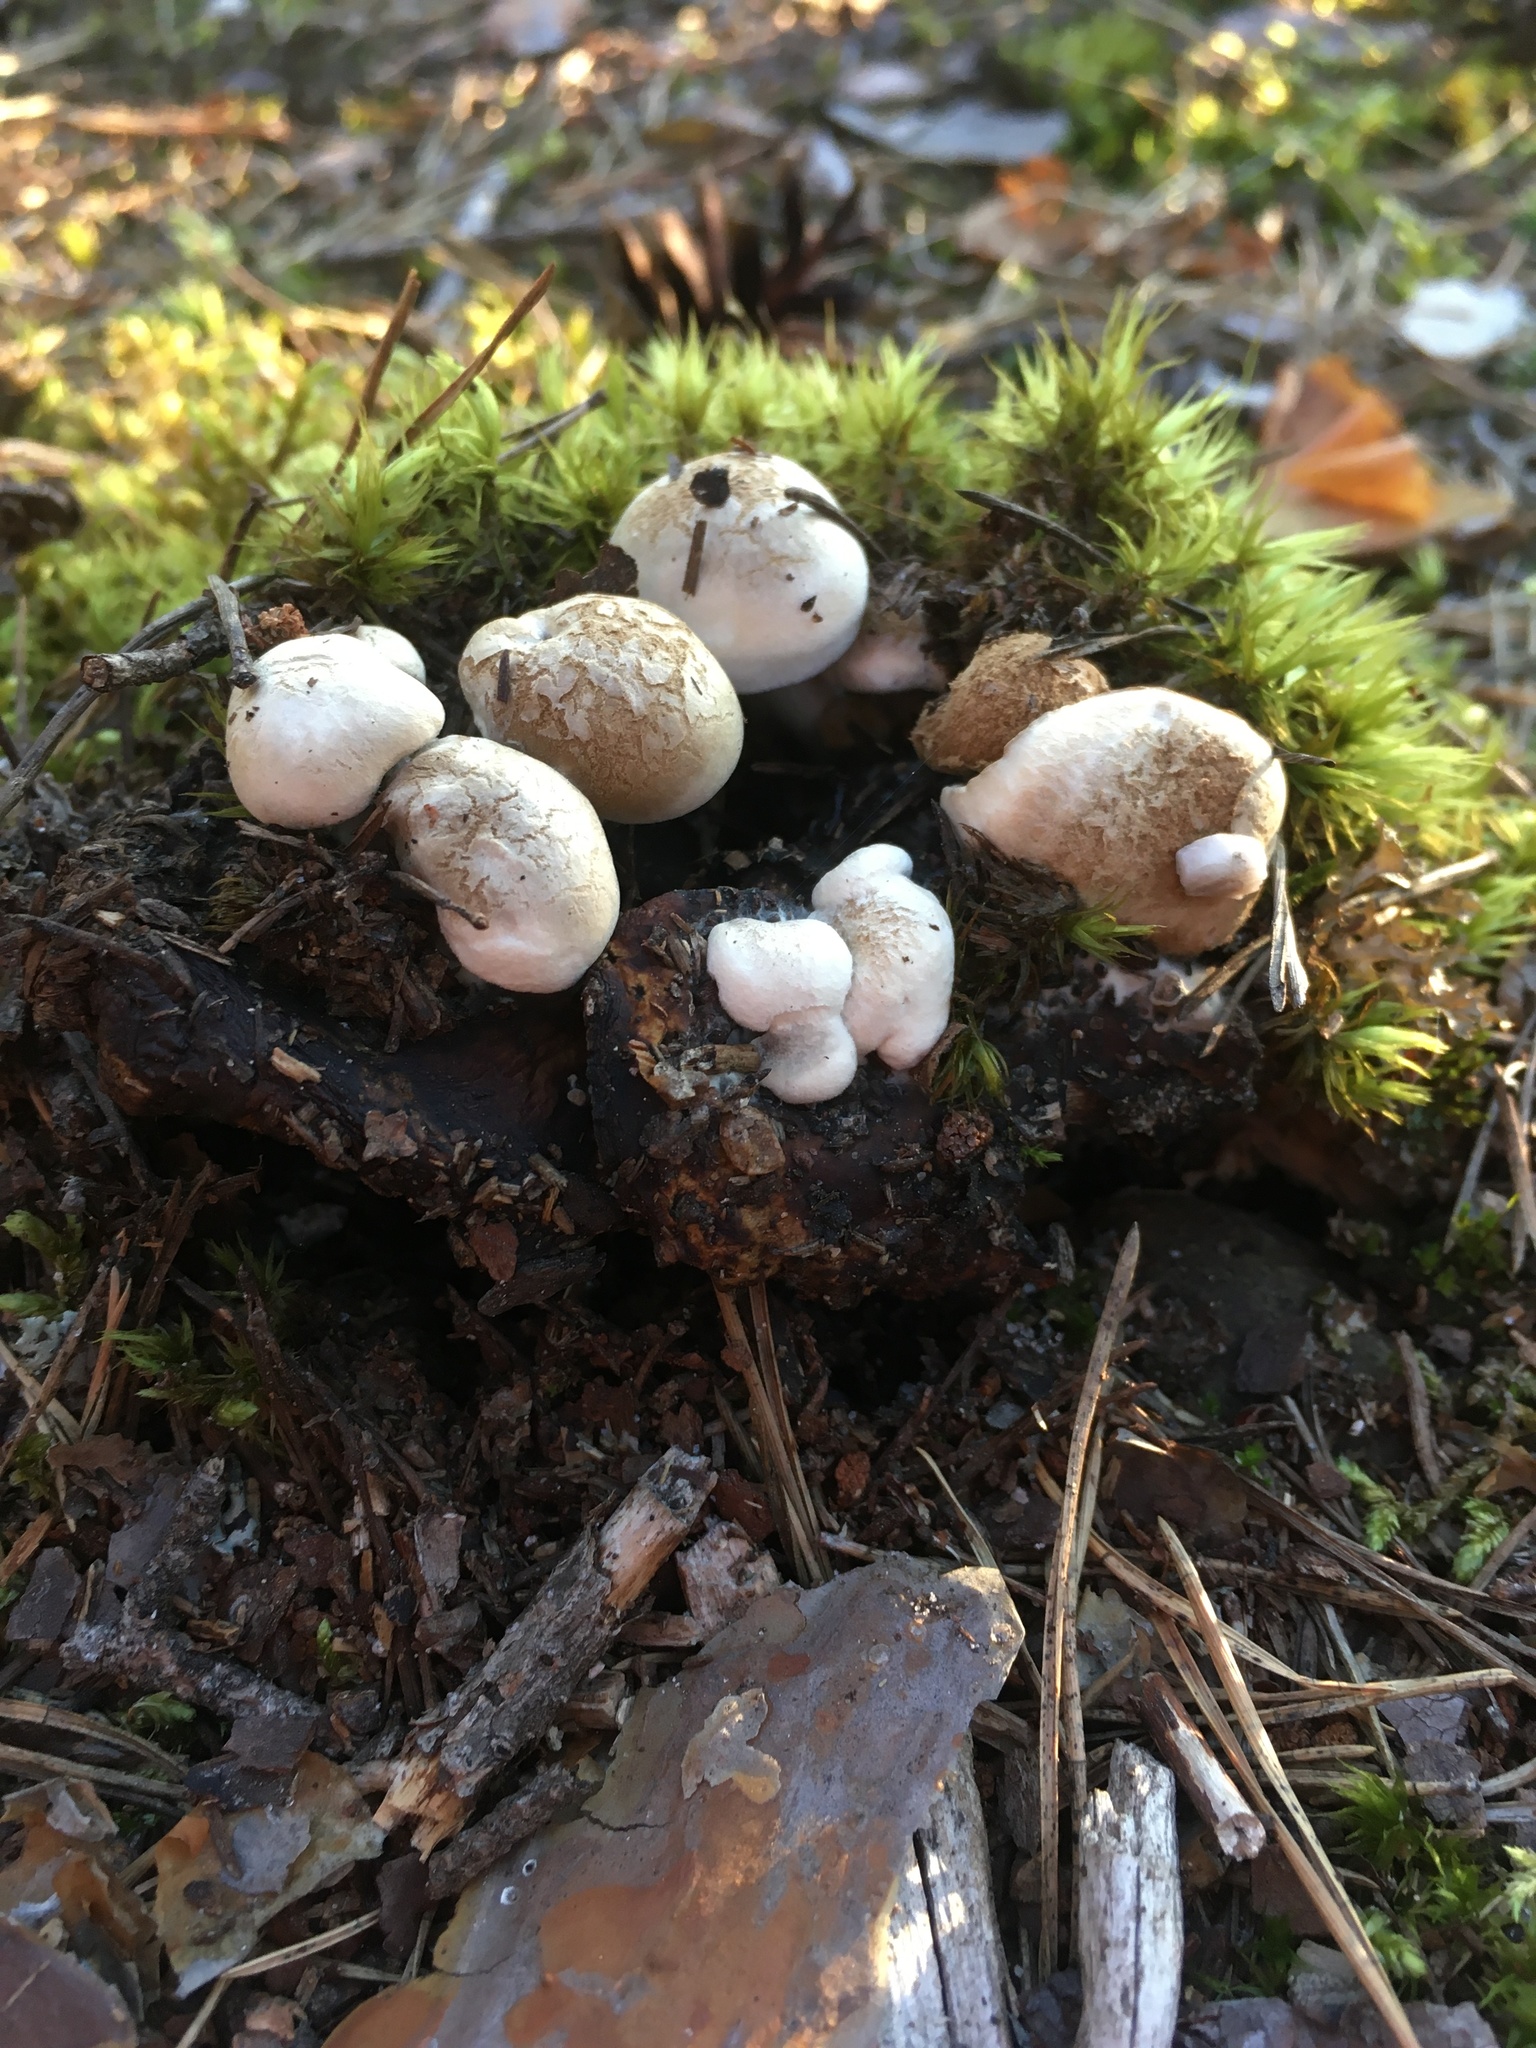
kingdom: Fungi
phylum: Basidiomycota
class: Agaricomycetes
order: Agaricales
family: Lyophyllaceae
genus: Asterophora
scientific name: Asterophora lycoperdoides
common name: Pick-a-back toadstool
